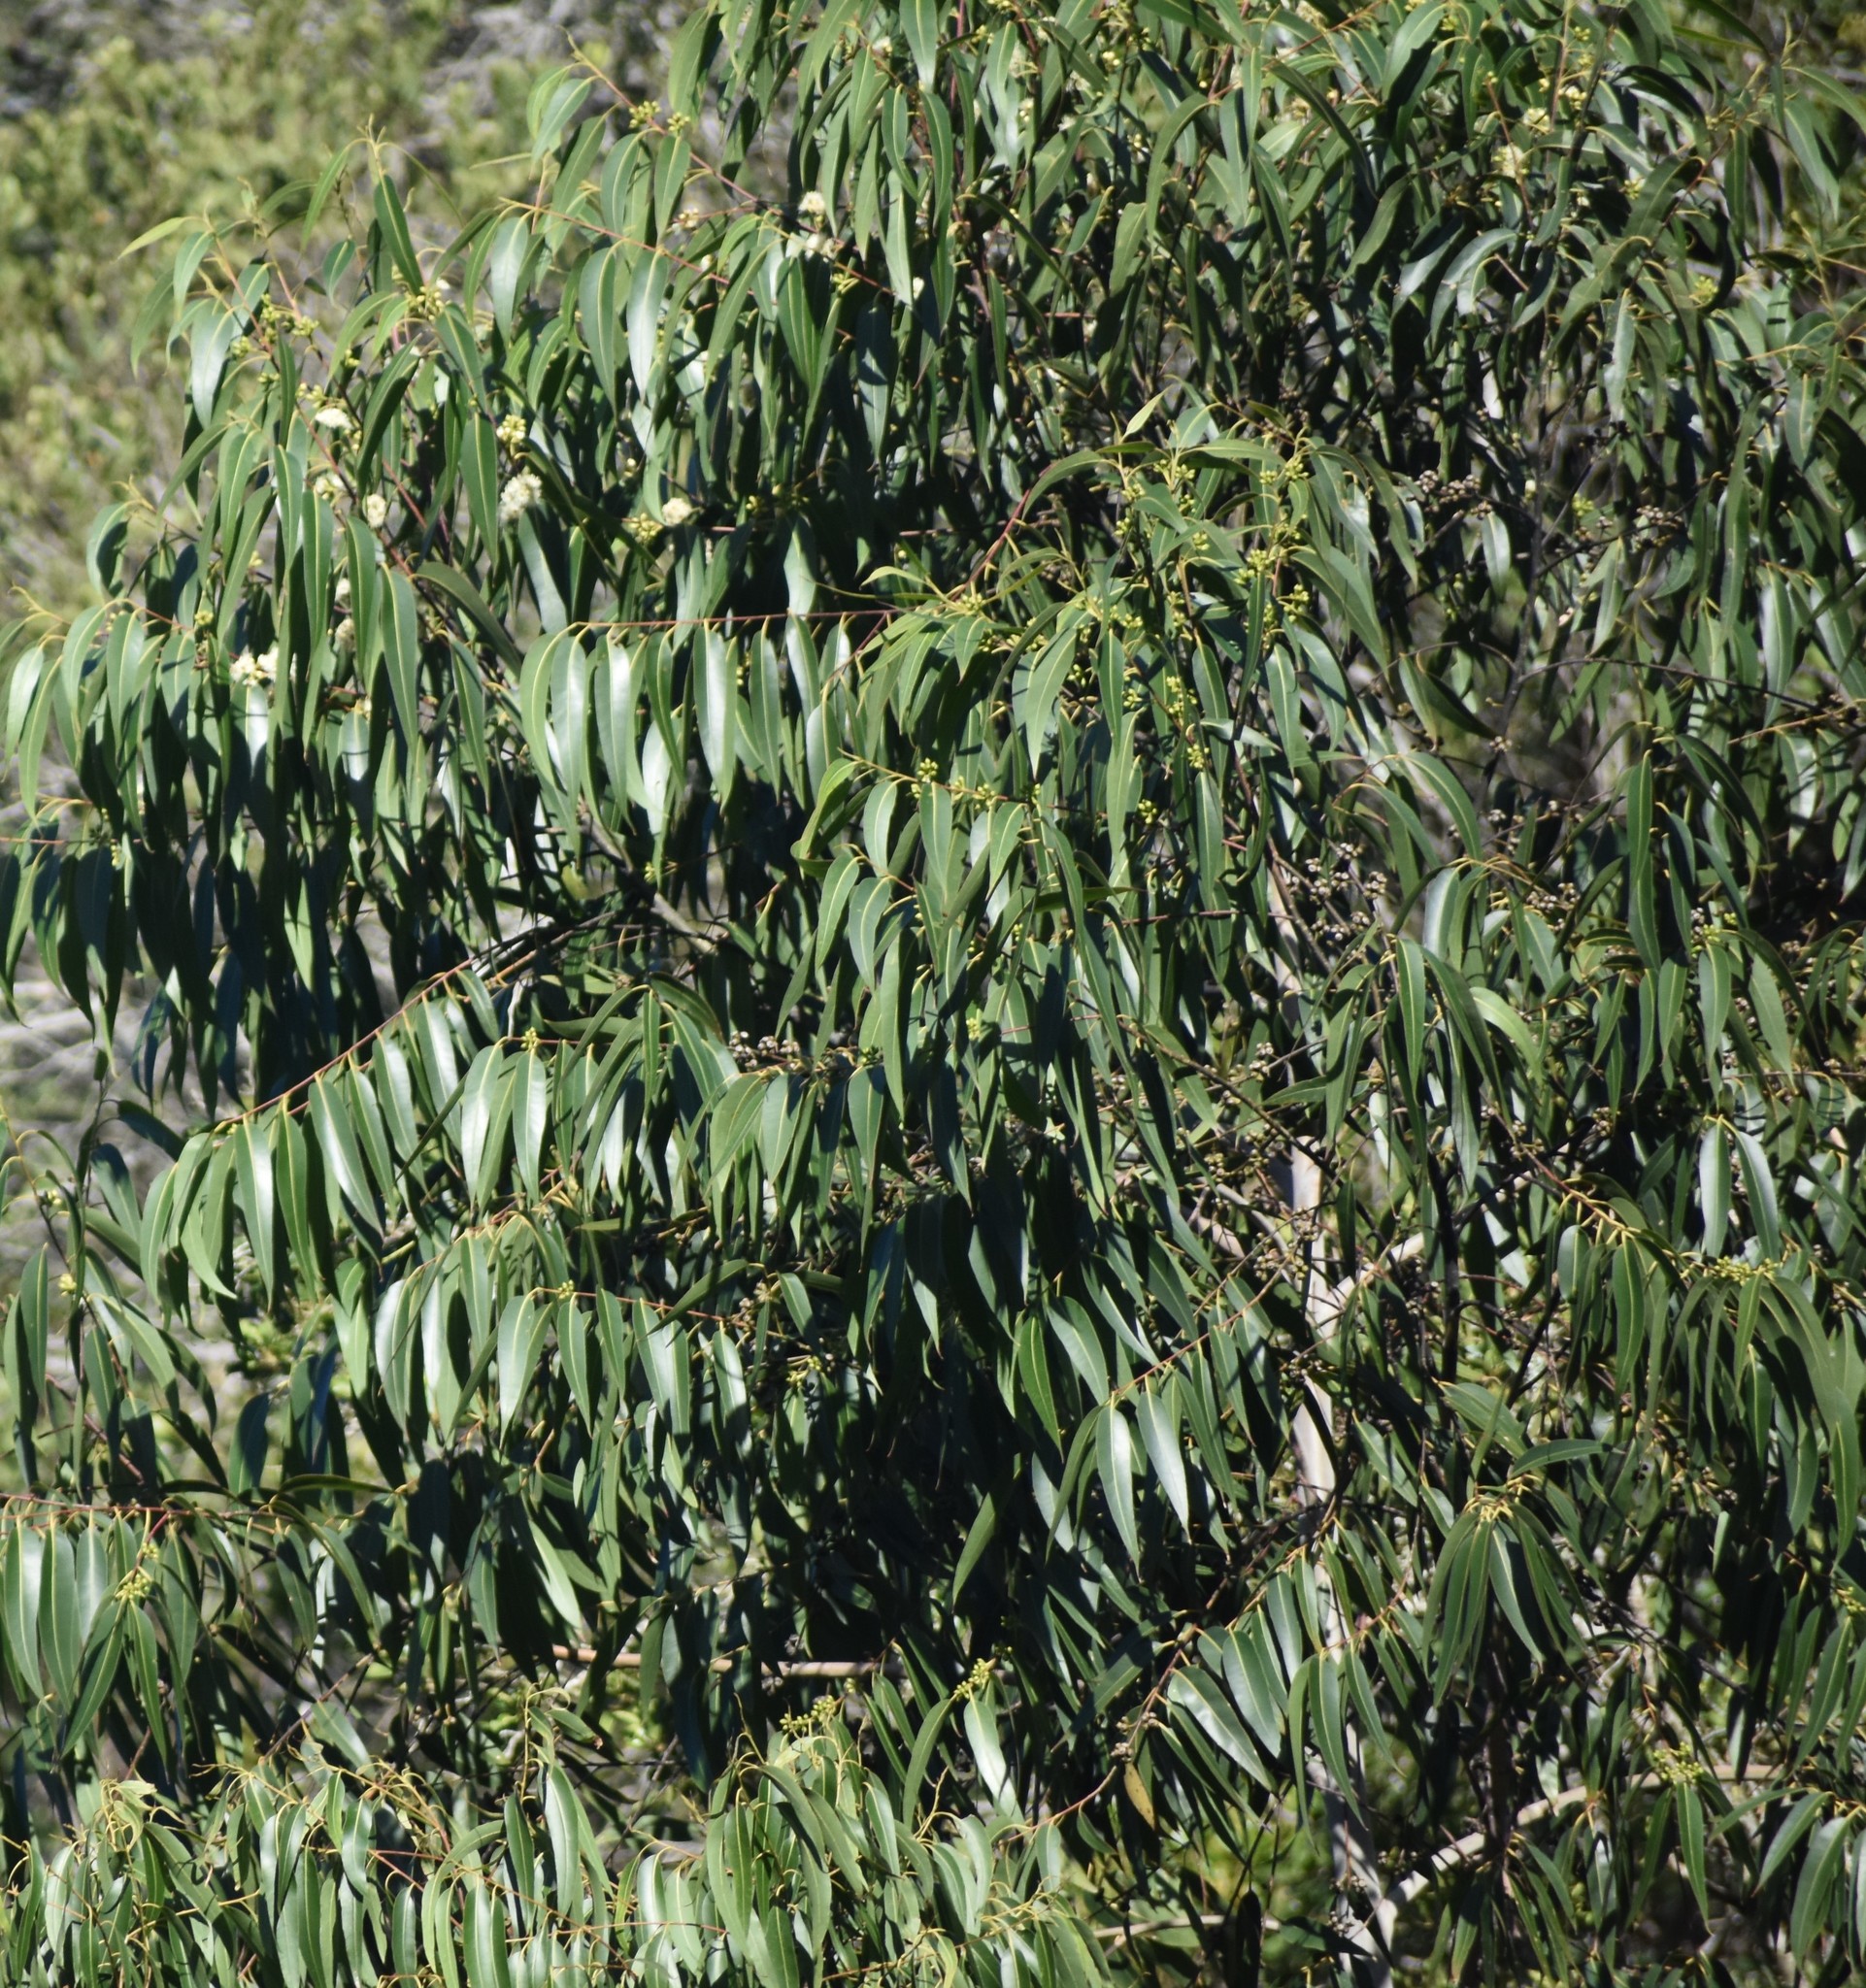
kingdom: Plantae
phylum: Tracheophyta
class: Magnoliopsida
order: Myrtales
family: Myrtaceae
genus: Eucalyptus
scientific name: Eucalyptus diversicolor
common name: Karri
